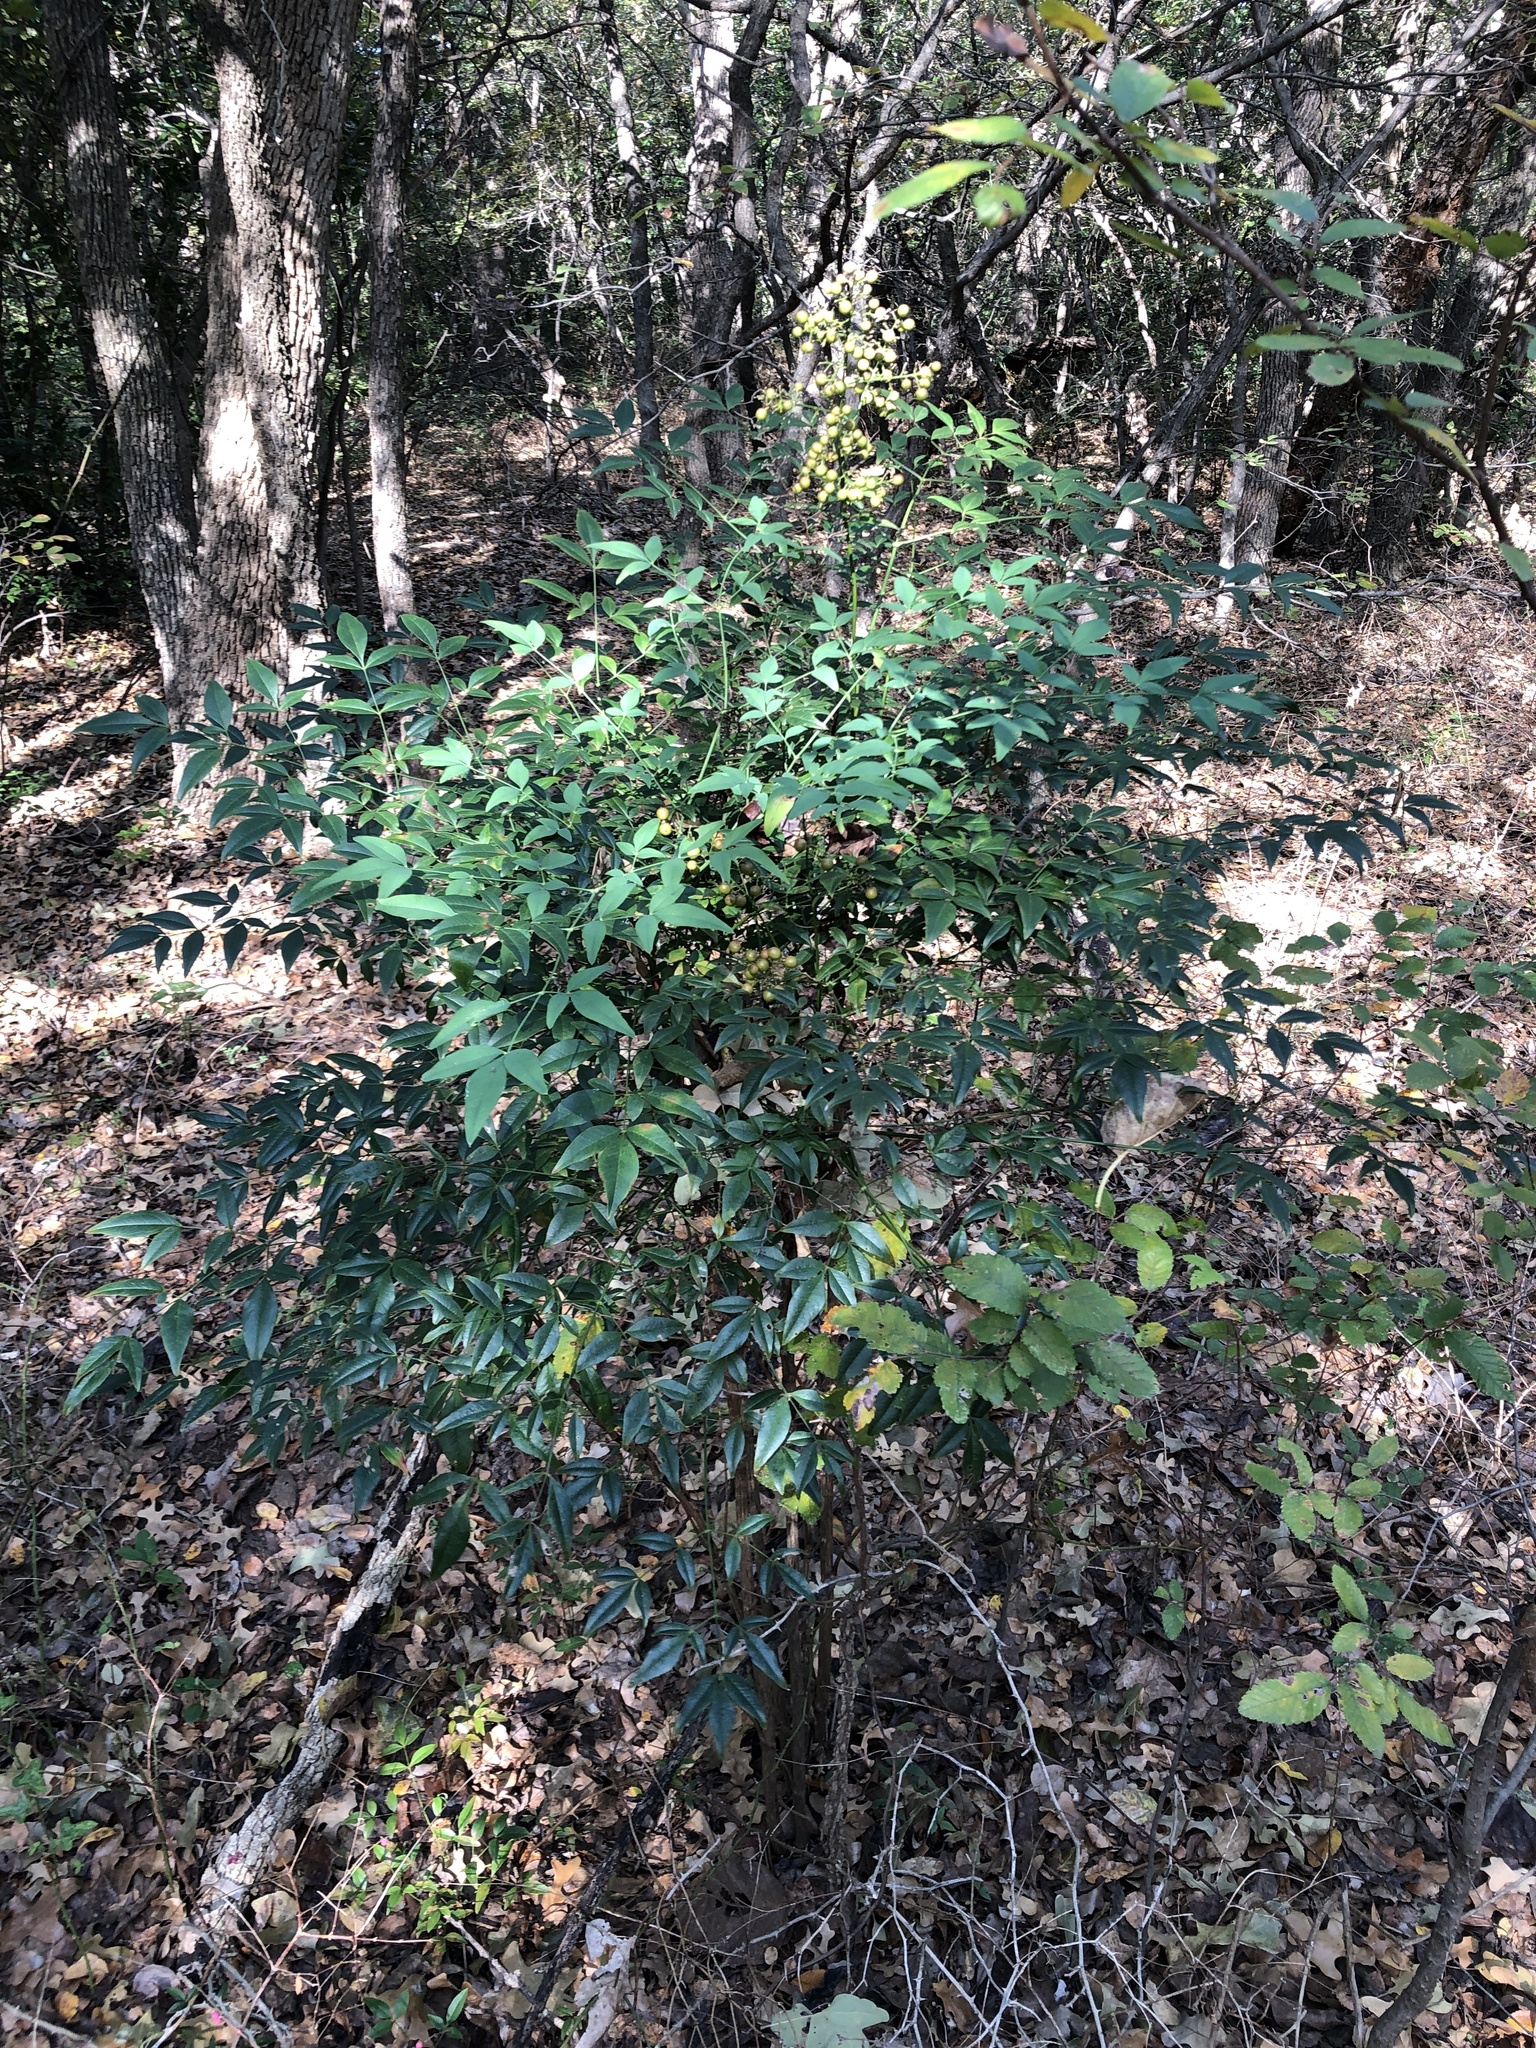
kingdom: Plantae
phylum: Tracheophyta
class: Magnoliopsida
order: Ranunculales
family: Berberidaceae
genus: Nandina
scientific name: Nandina domestica
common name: Sacred bamboo
